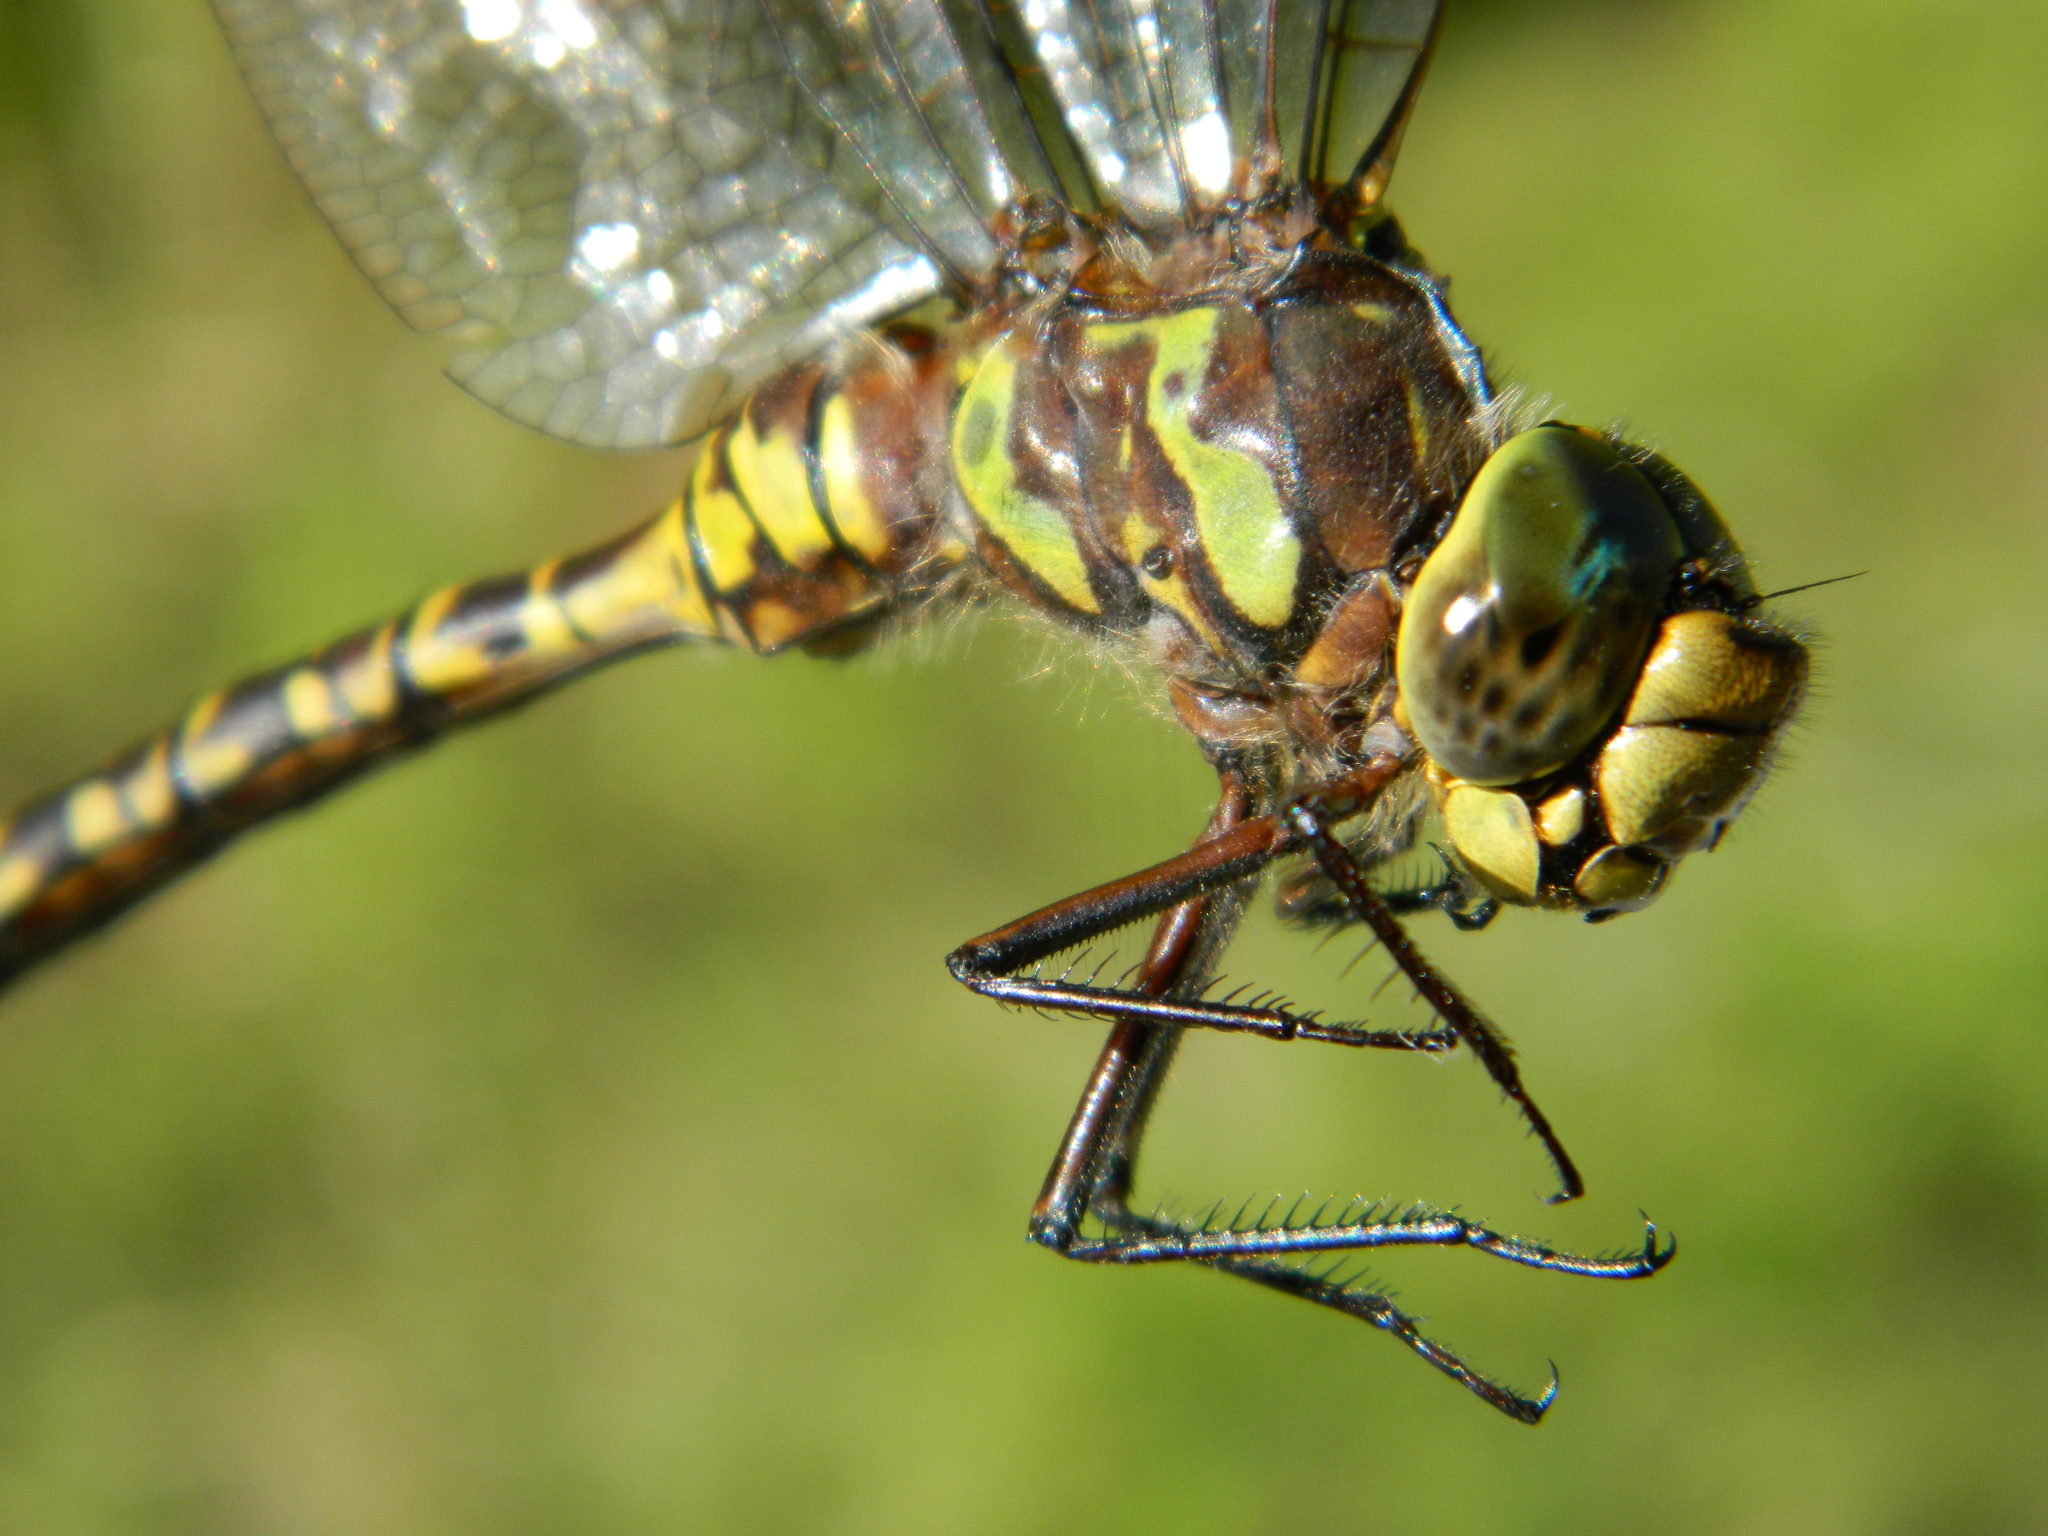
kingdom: Animalia
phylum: Arthropoda
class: Insecta
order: Odonata
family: Aeshnidae
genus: Aeshna
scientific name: Aeshna eremita
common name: Lake darner
